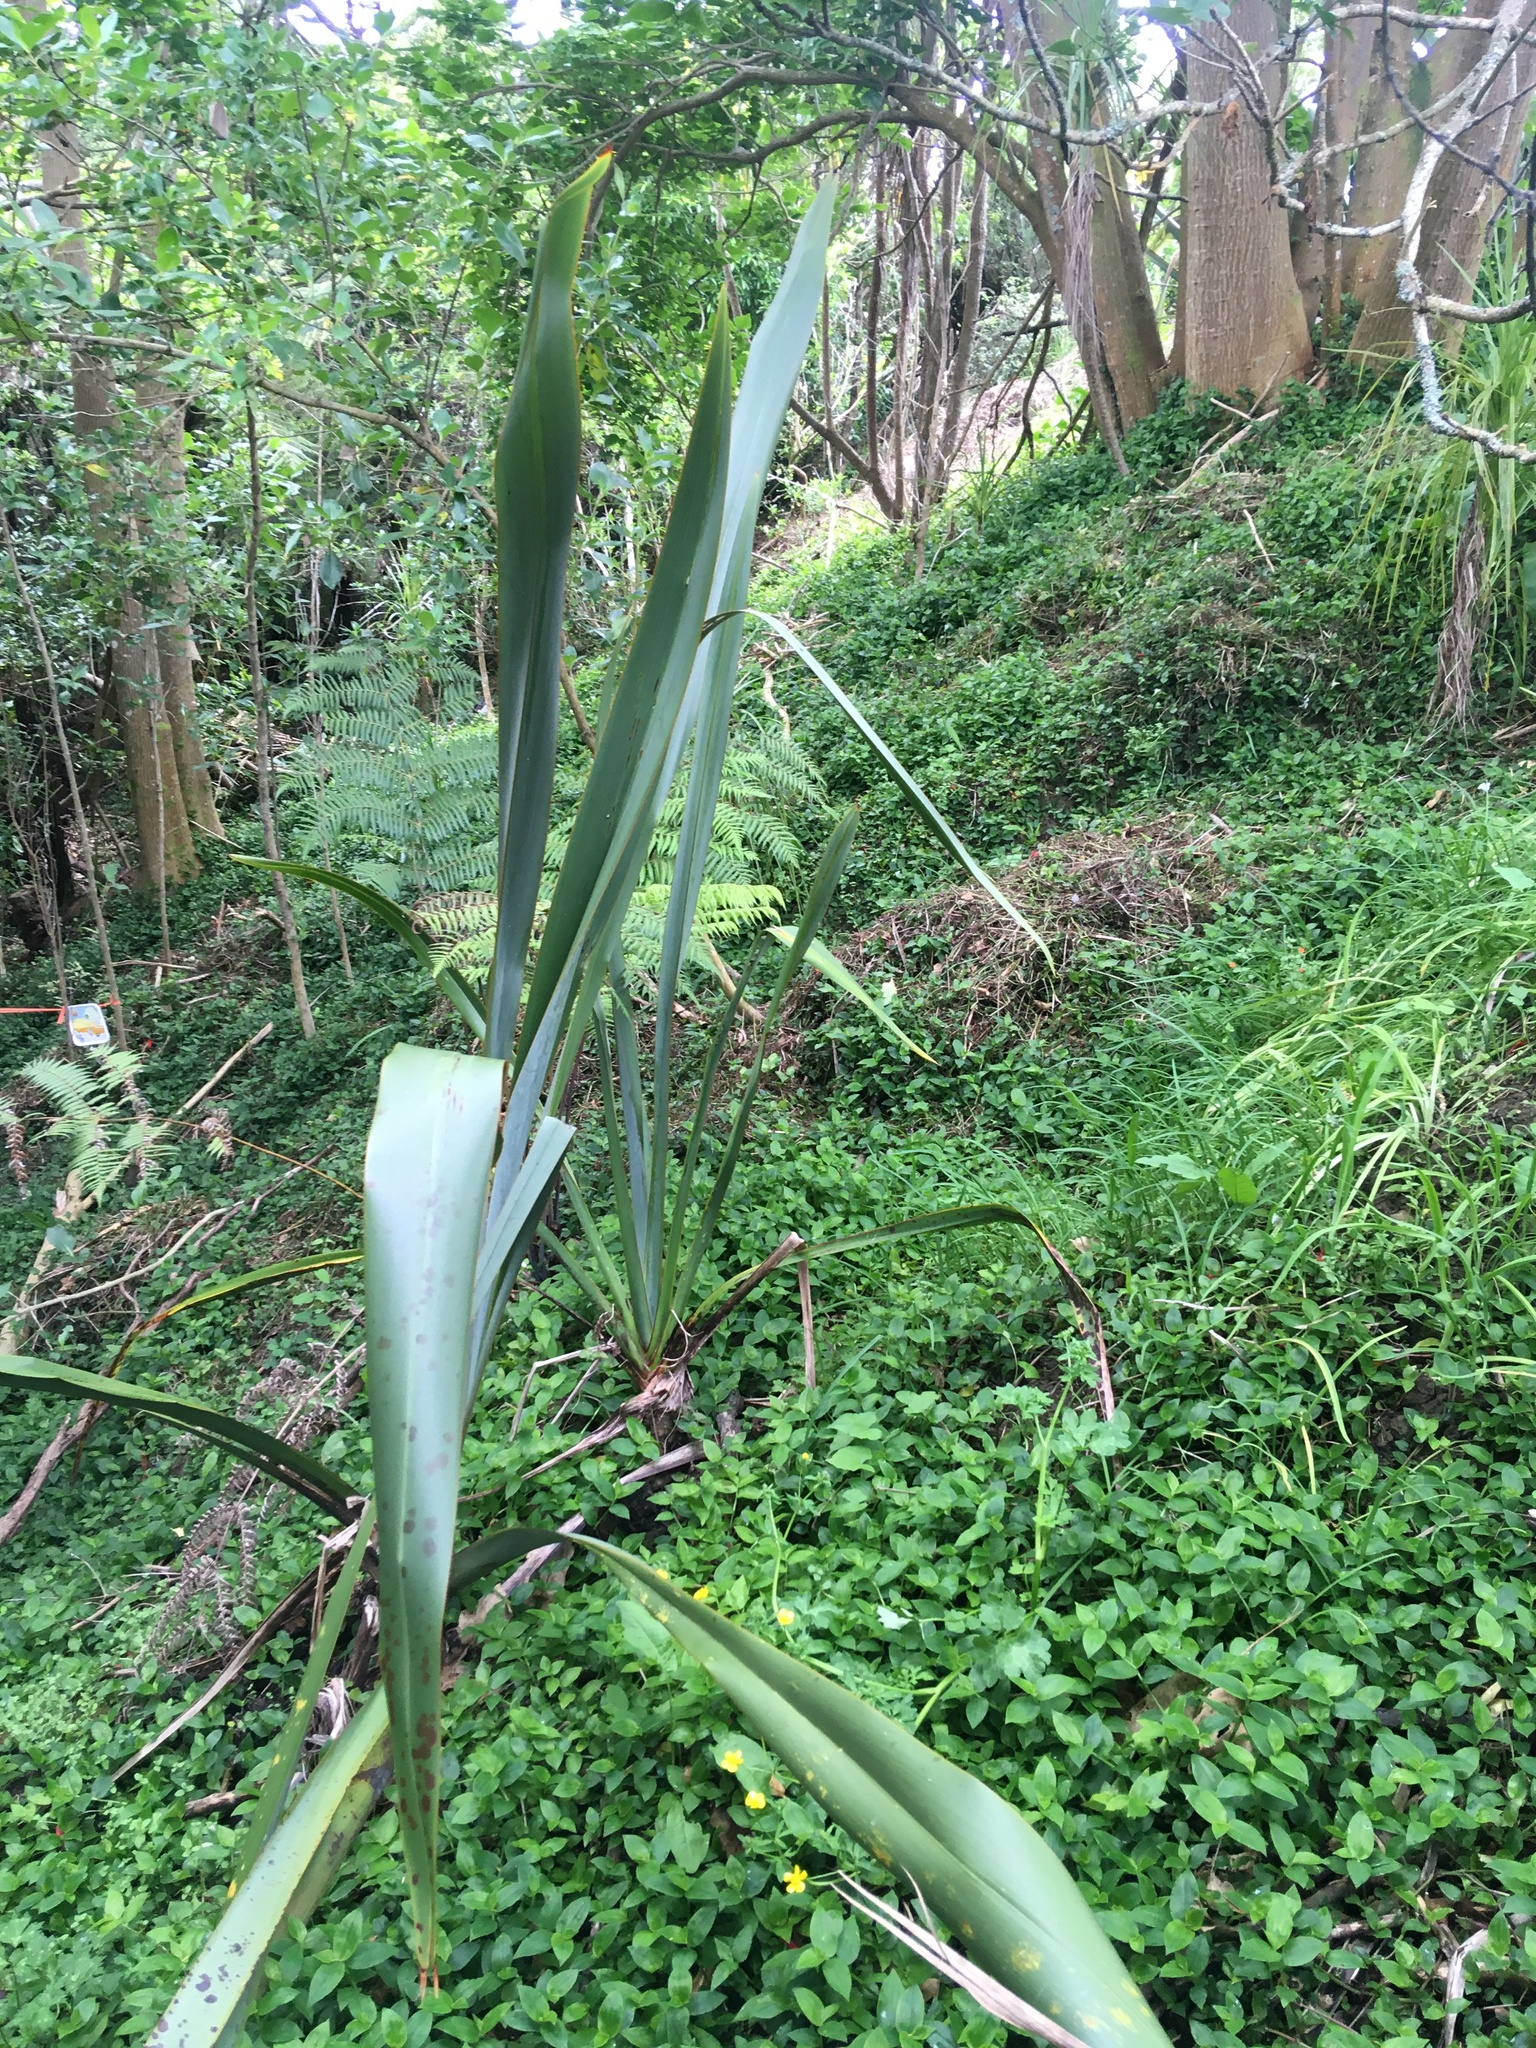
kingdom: Plantae
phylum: Tracheophyta
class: Liliopsida
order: Commelinales
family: Commelinaceae
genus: Tradescantia
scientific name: Tradescantia fluminensis
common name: Wandering-jew
